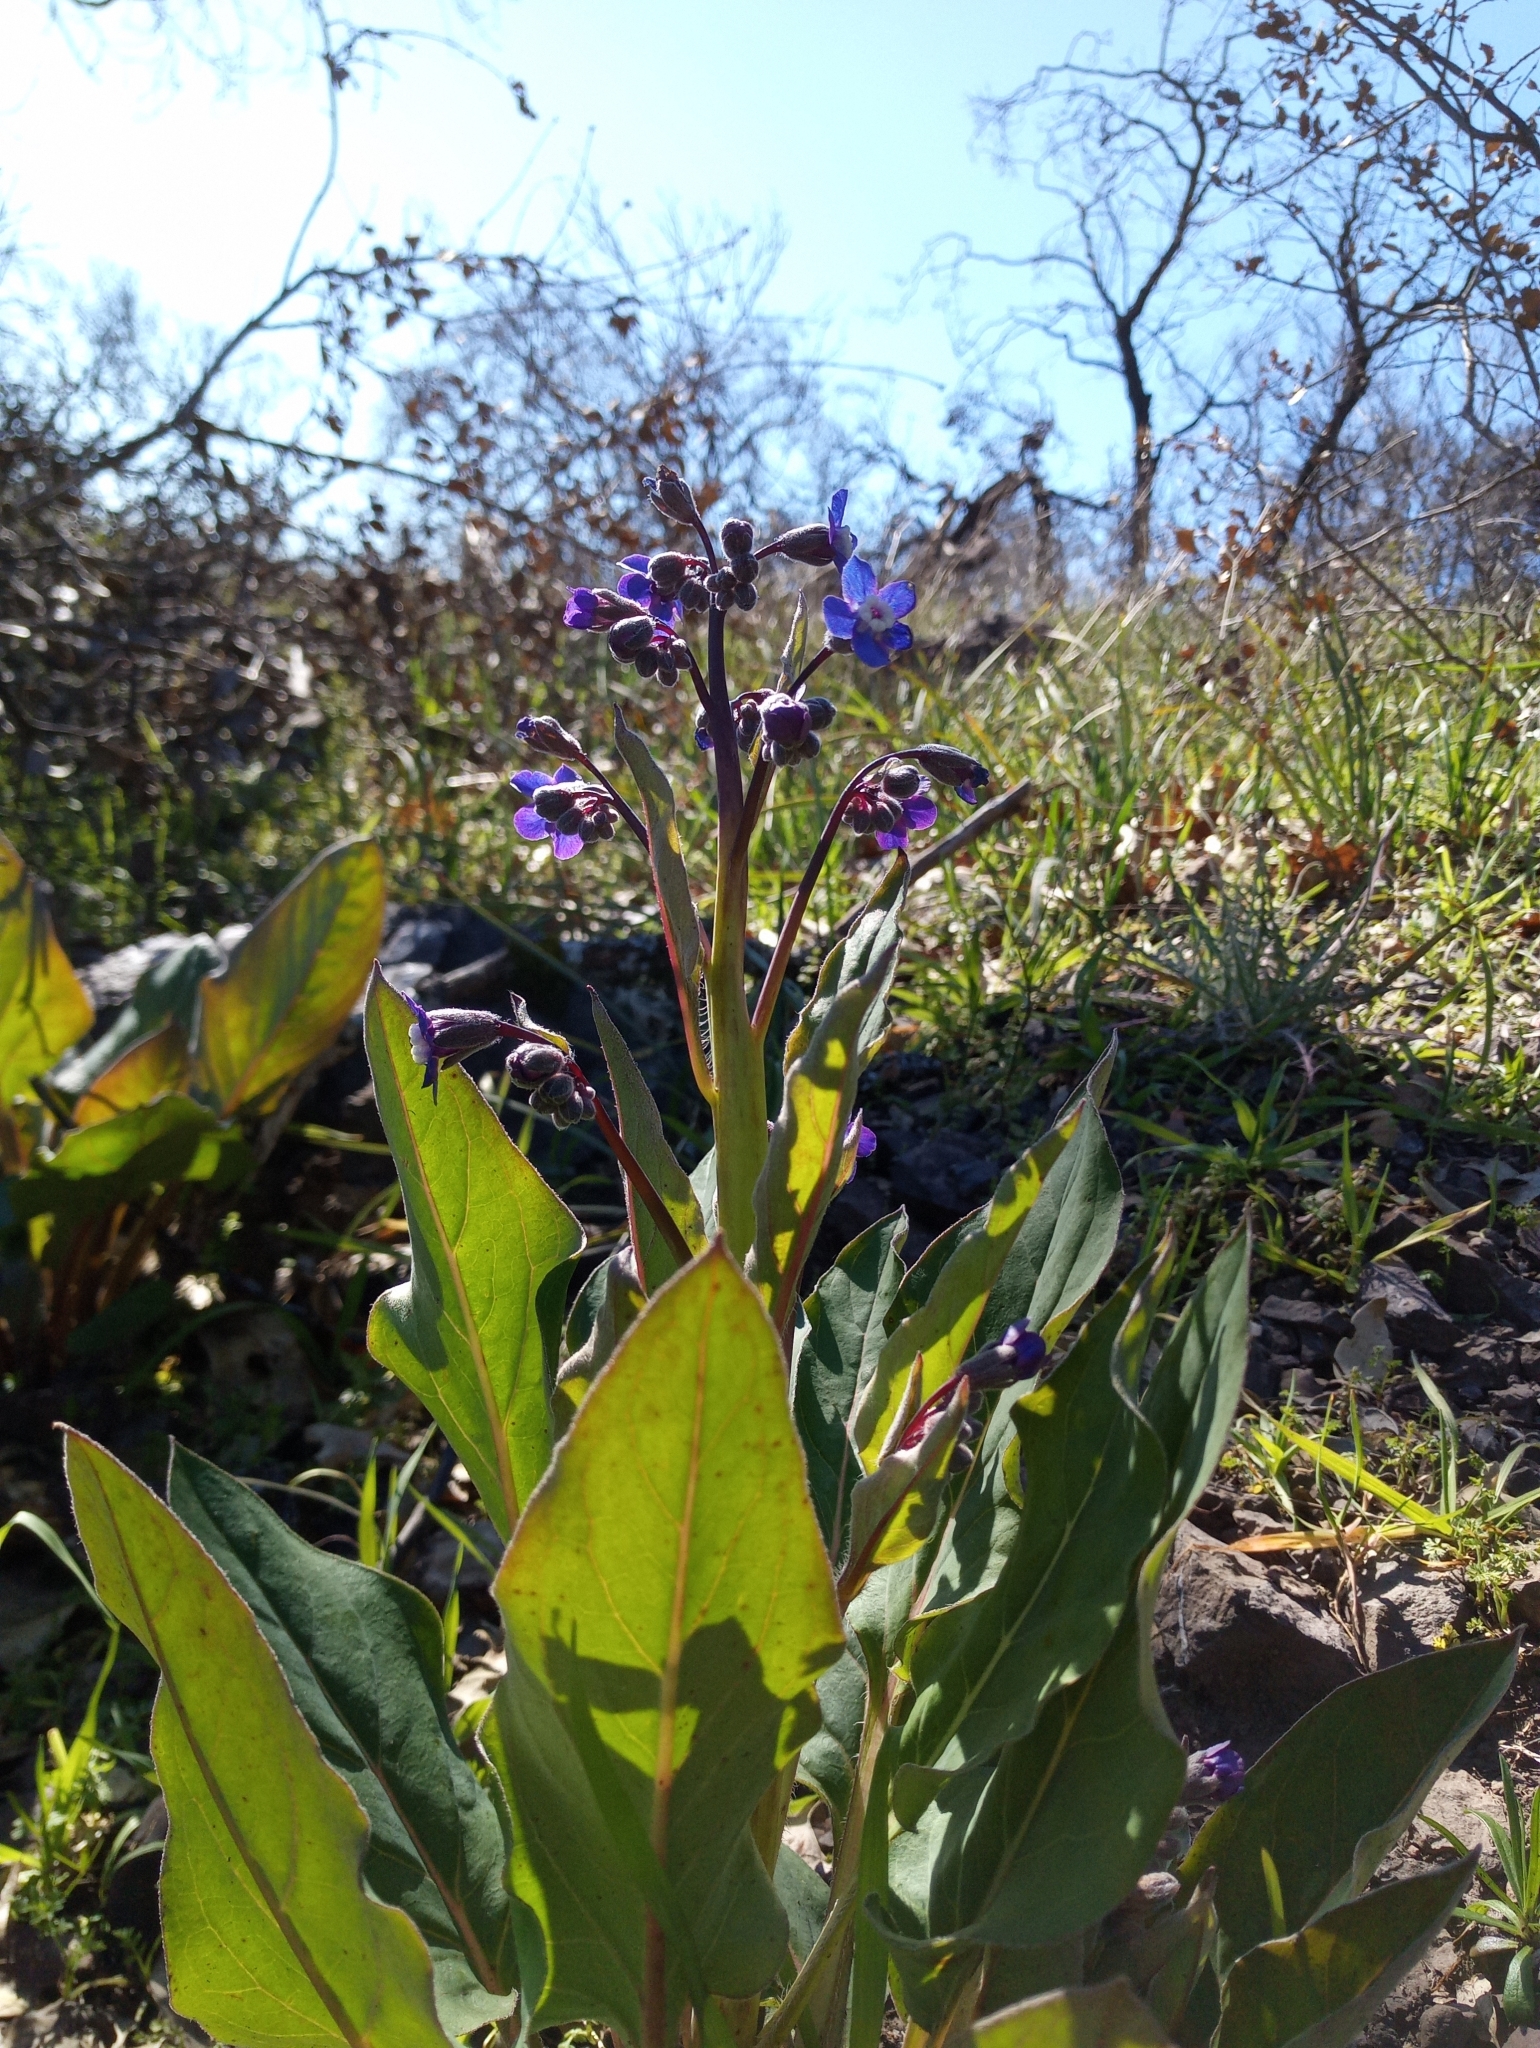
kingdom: Plantae
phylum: Tracheophyta
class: Magnoliopsida
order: Boraginales
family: Boraginaceae
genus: Adelinia
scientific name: Adelinia grande
